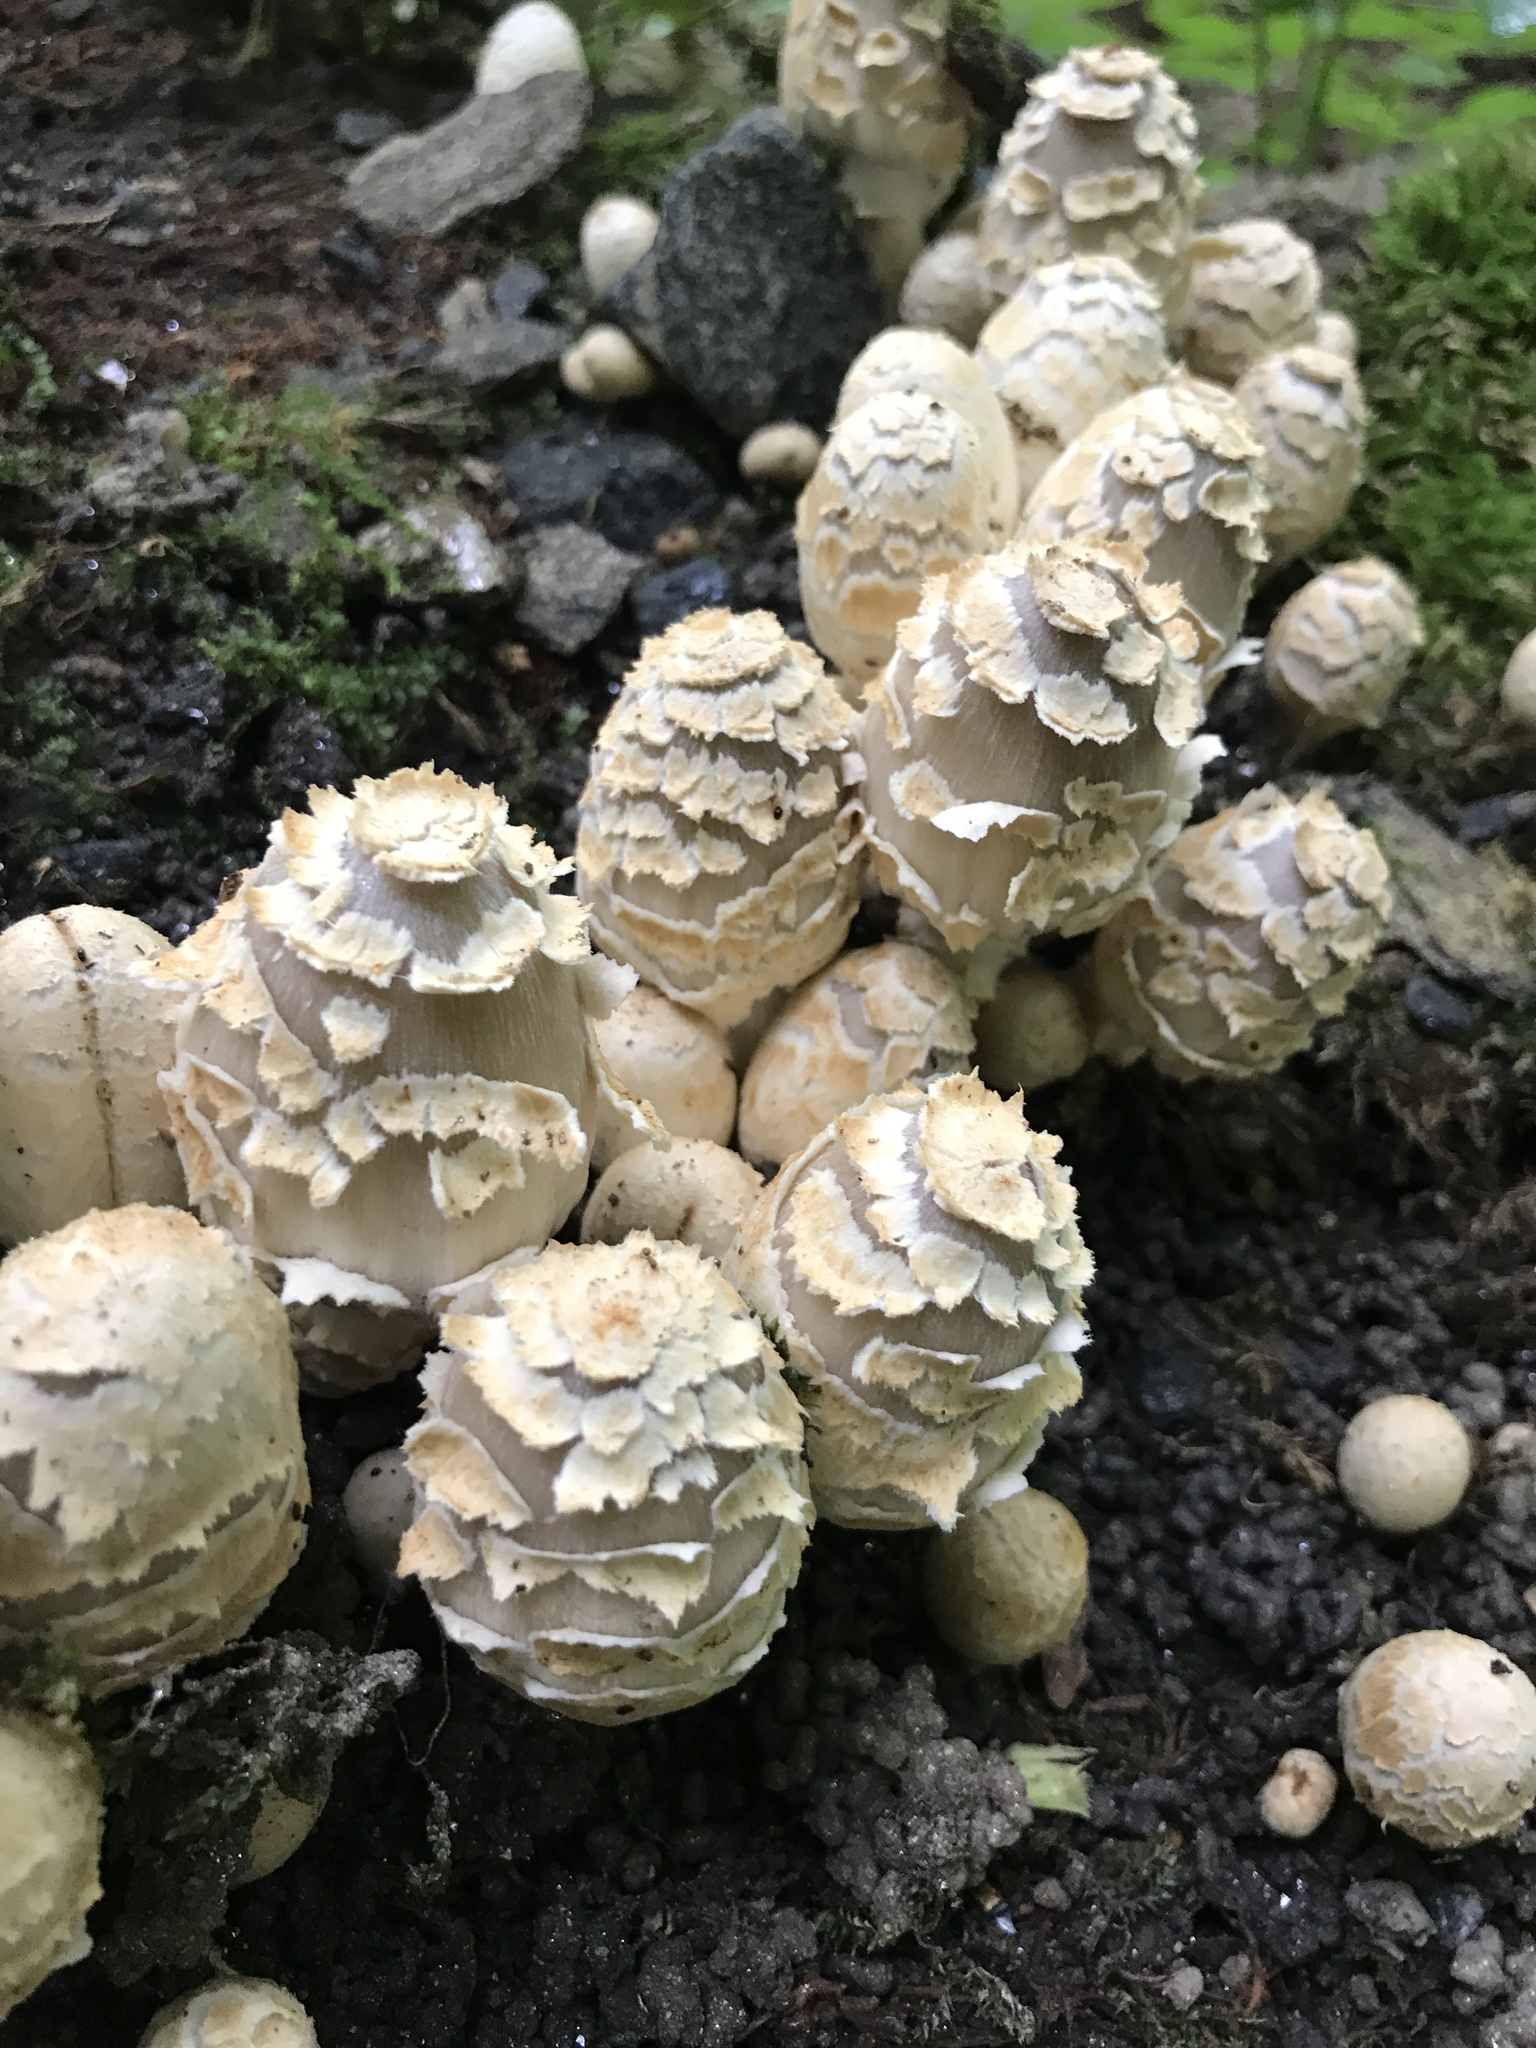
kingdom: Fungi
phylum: Basidiomycota
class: Agaricomycetes
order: Agaricales
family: Psathyrellaceae
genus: Coprinopsis
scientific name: Coprinopsis variegata
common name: Scaly ink cap
